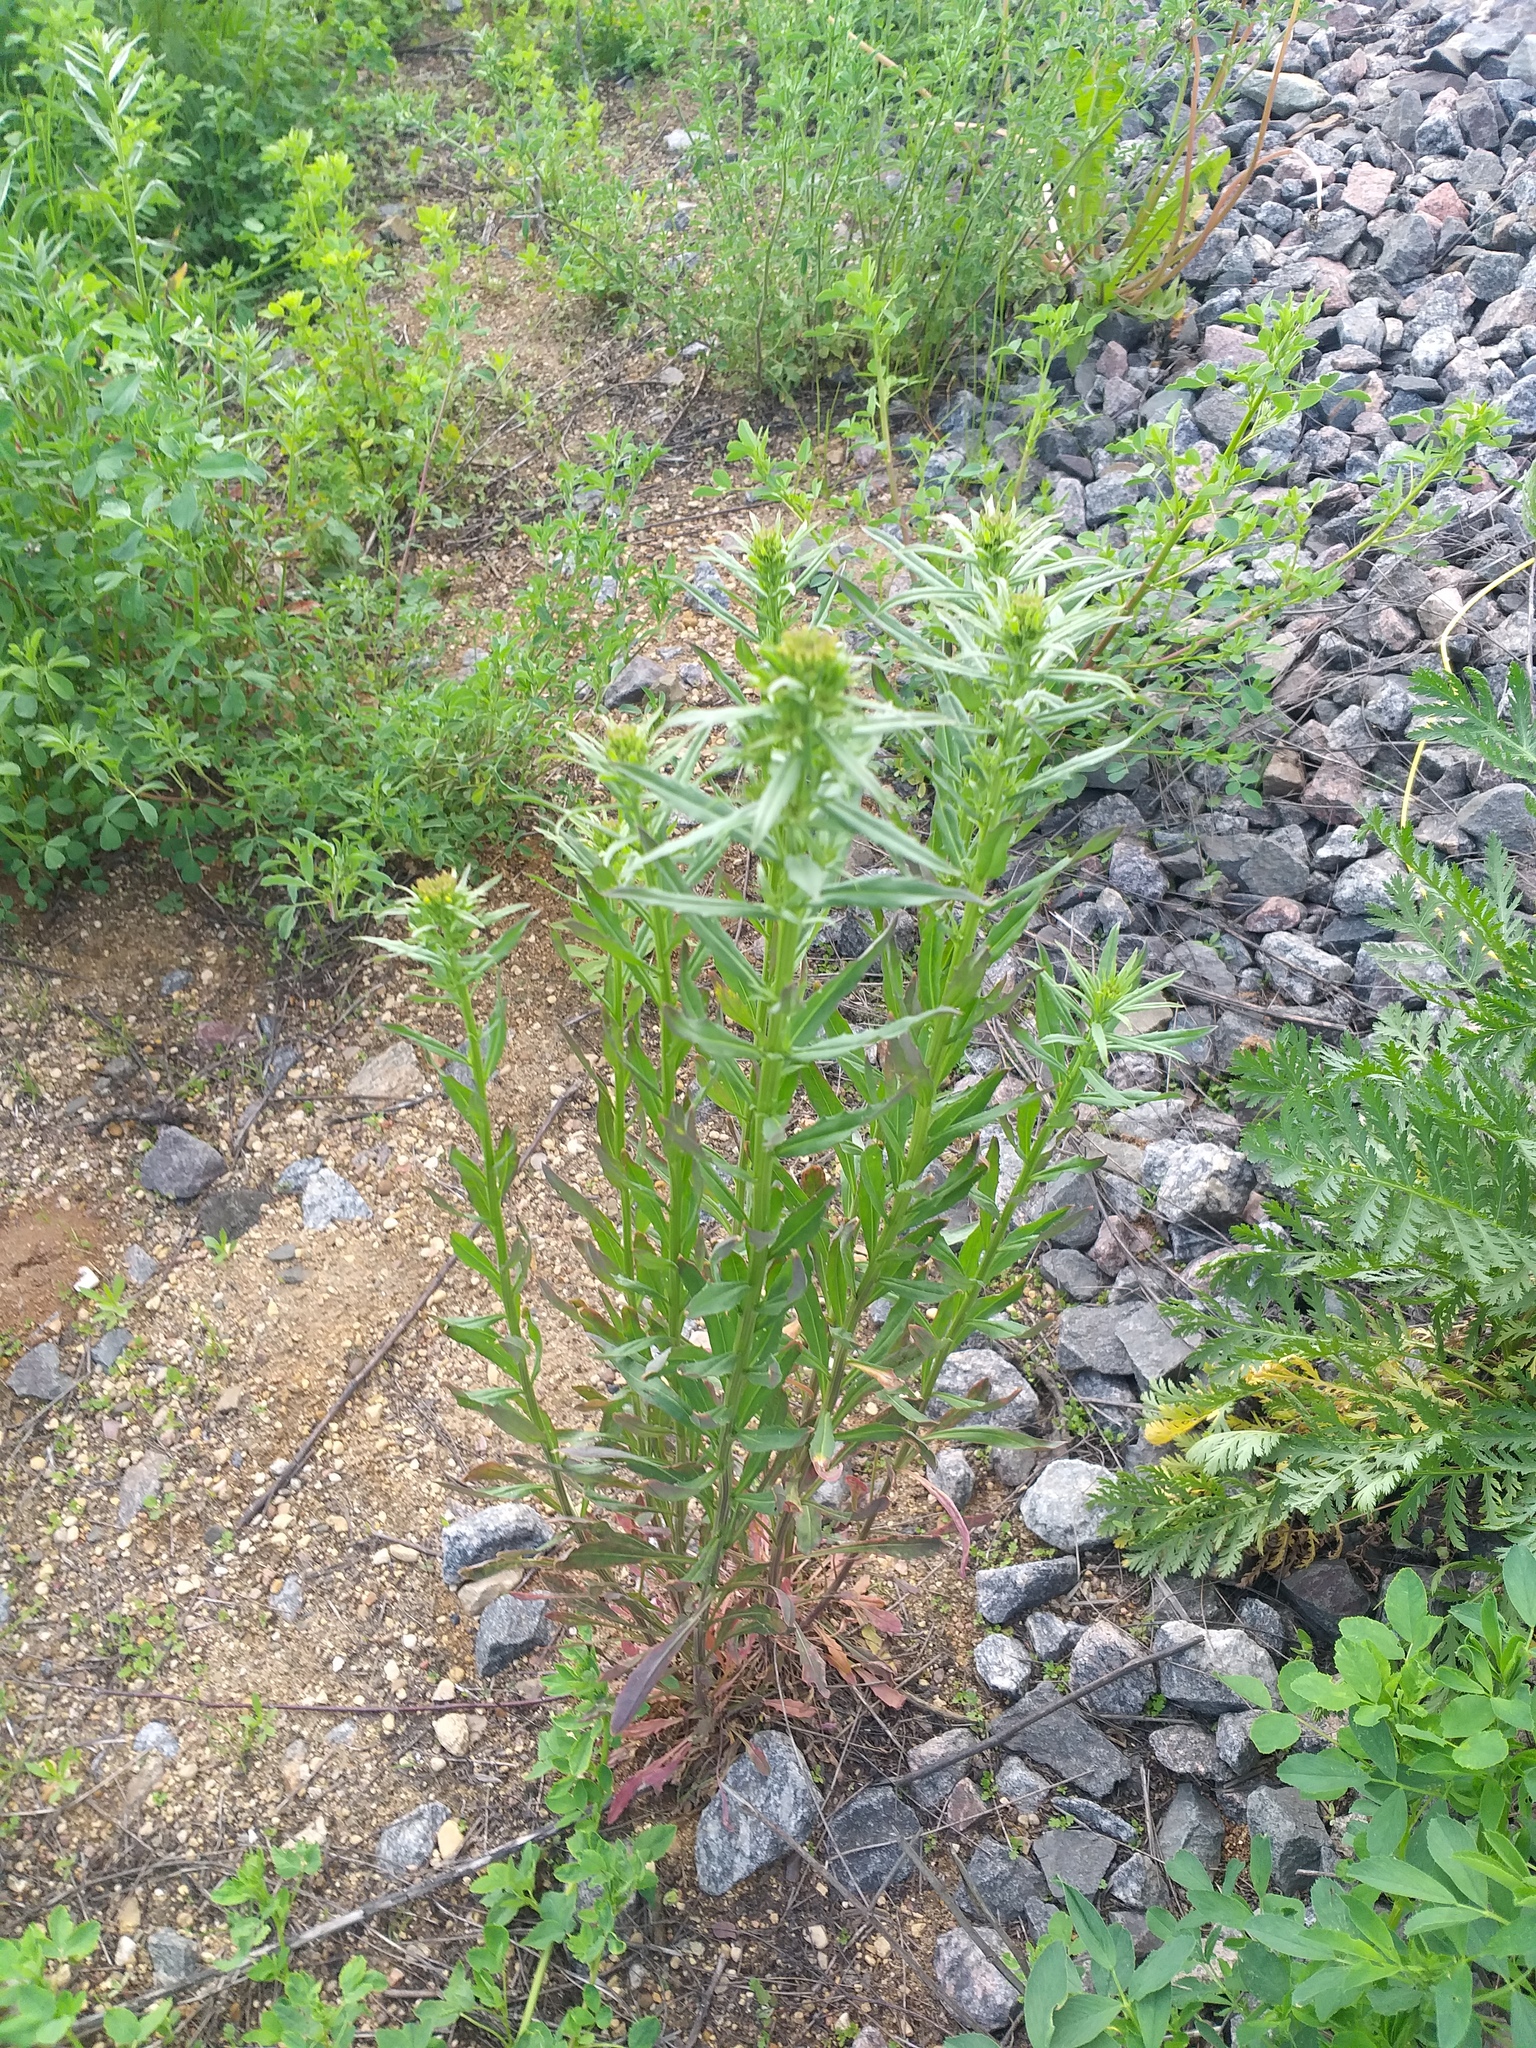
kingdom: Plantae
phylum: Tracheophyta
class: Magnoliopsida
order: Brassicales
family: Brassicaceae
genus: Erysimum
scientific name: Erysimum hieraciifolium
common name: European wallflower
